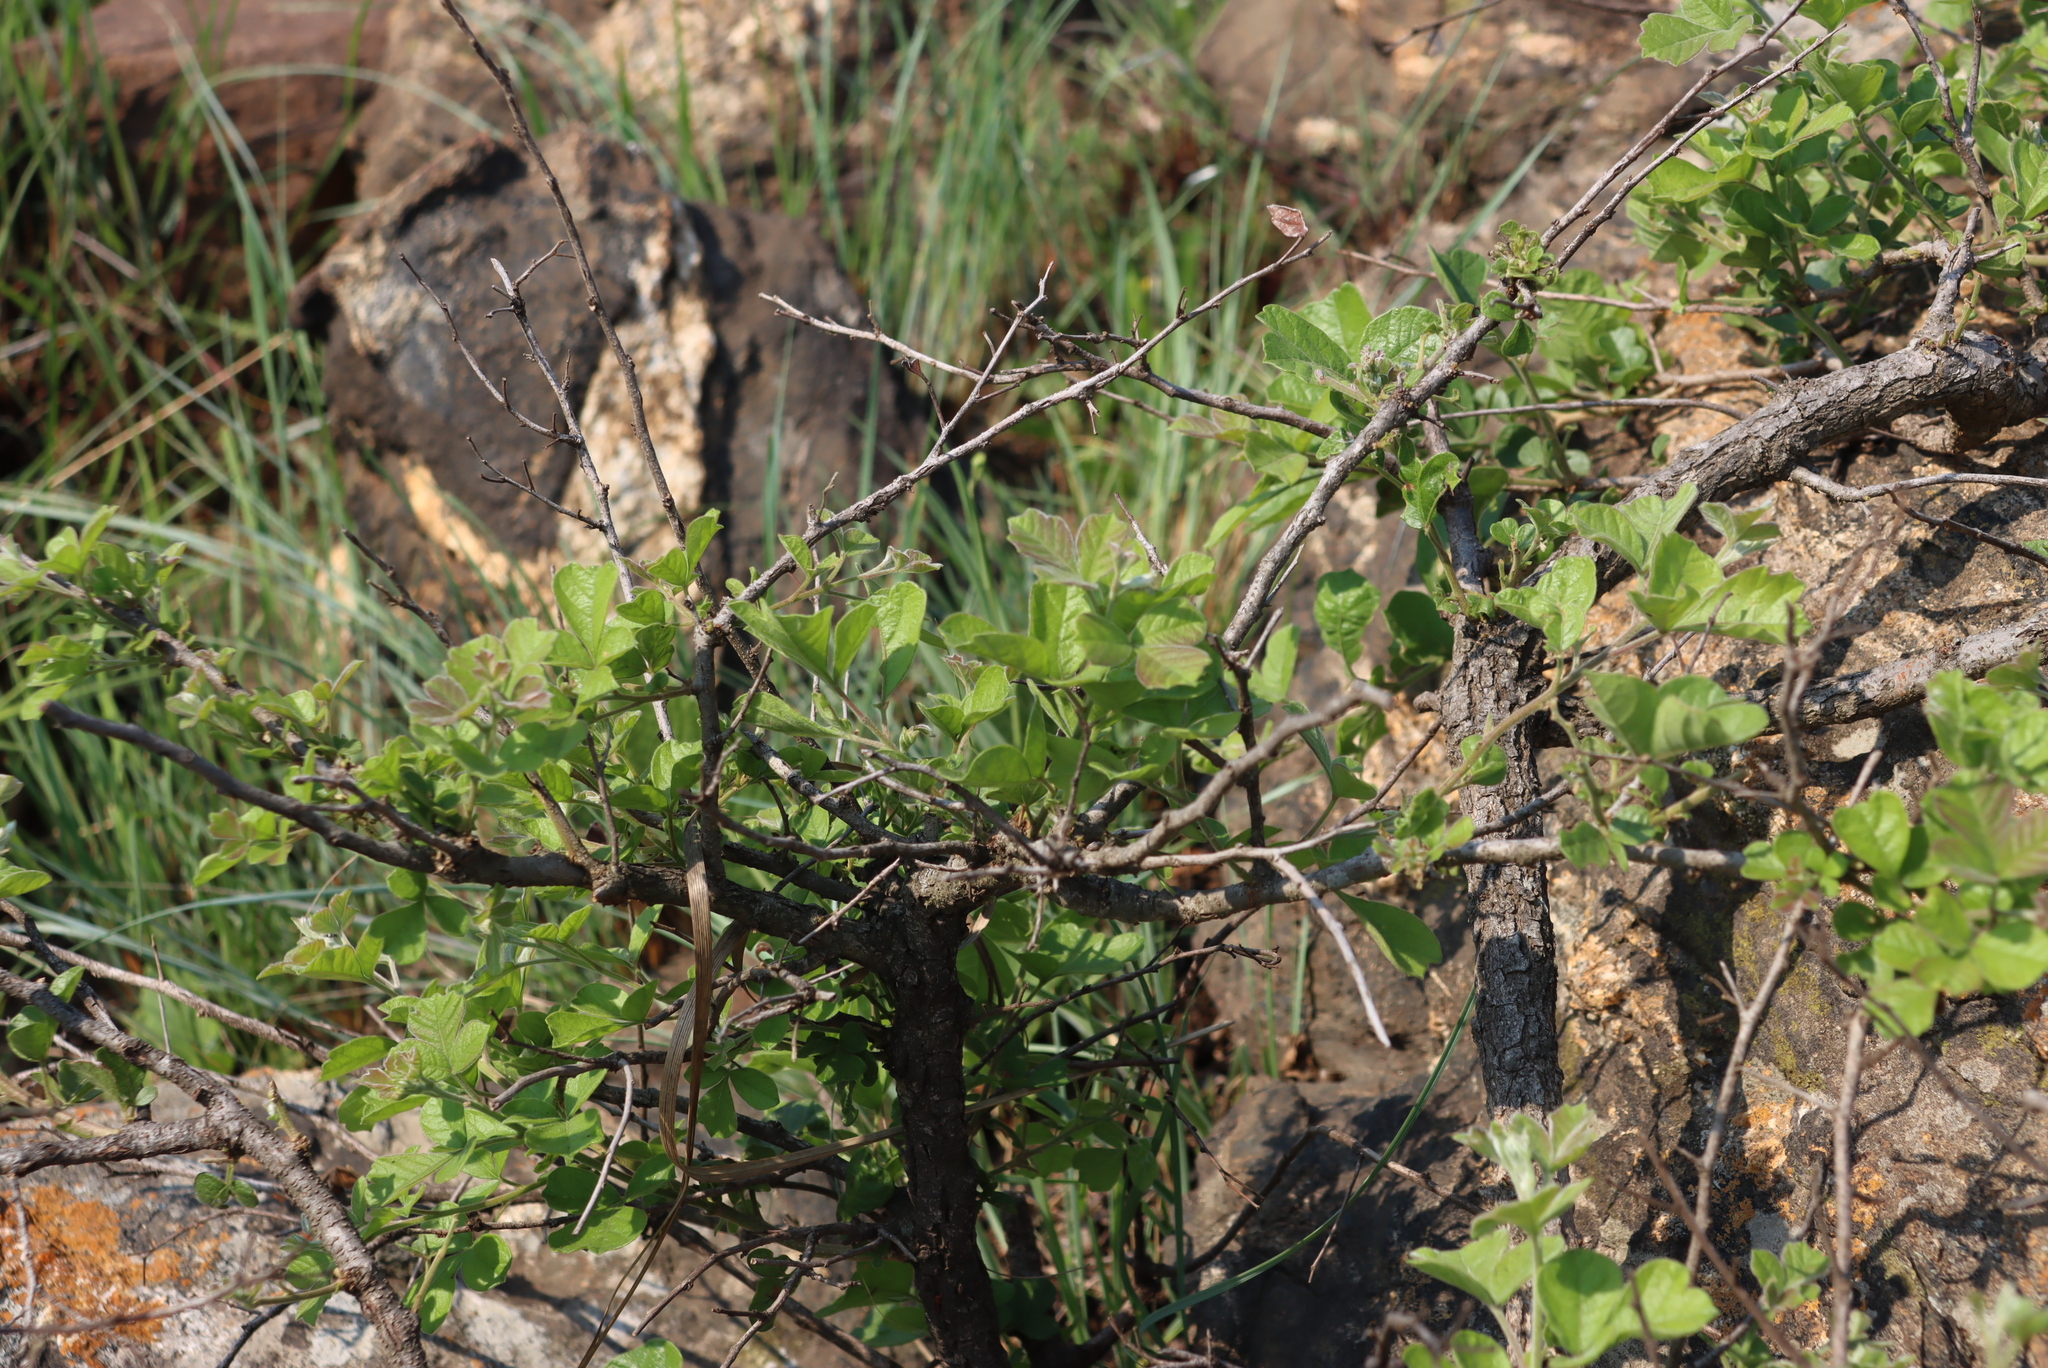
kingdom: Plantae
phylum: Tracheophyta
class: Magnoliopsida
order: Sapindales
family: Anacardiaceae
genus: Searsia
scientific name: Searsia rehmanniana
